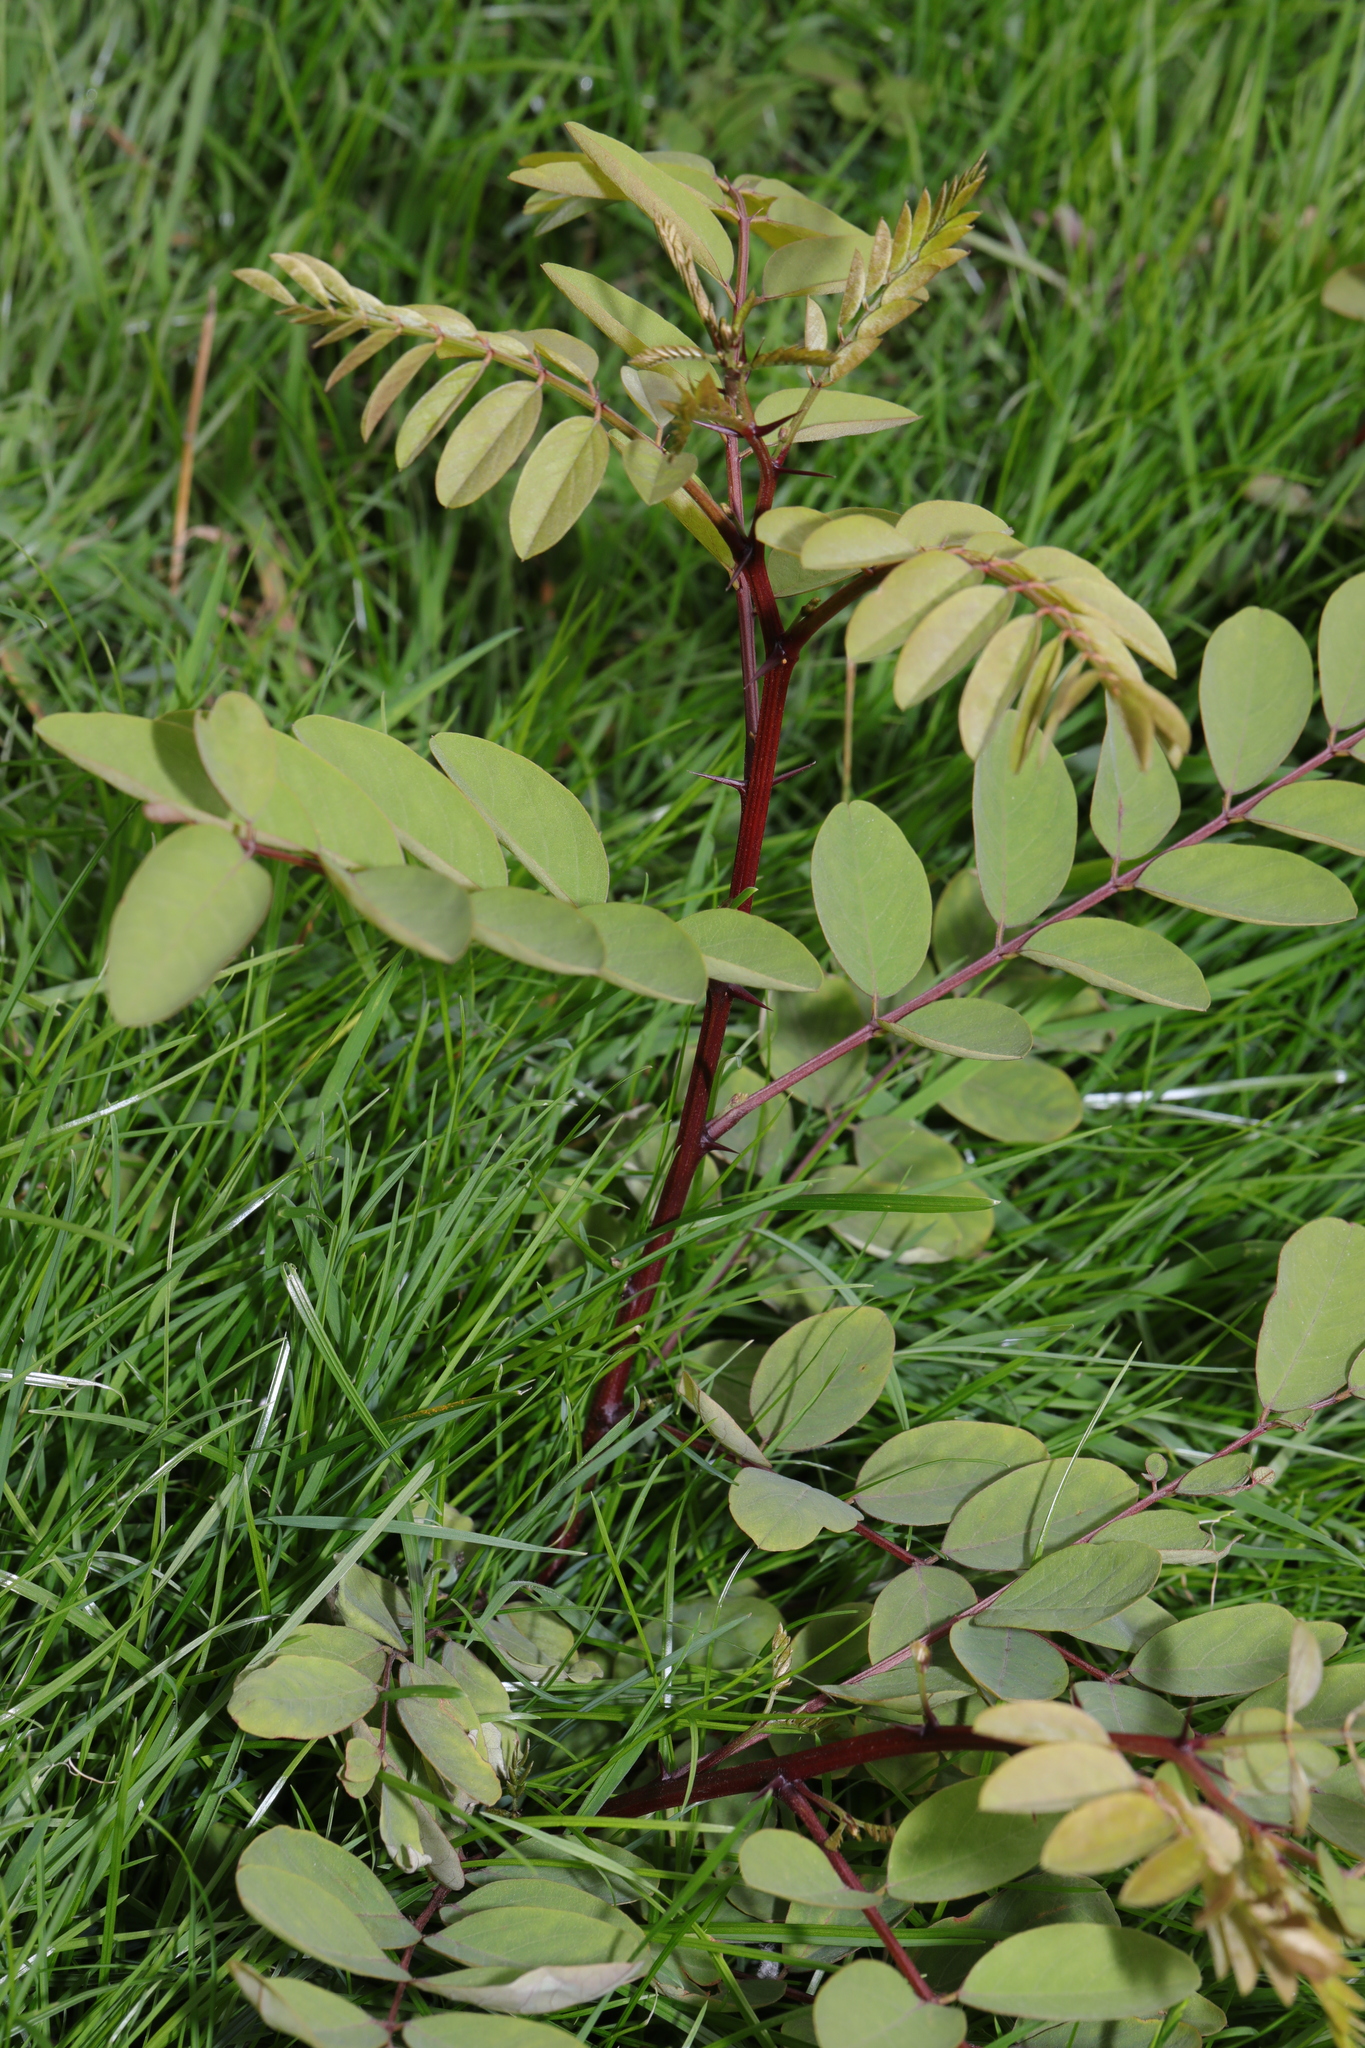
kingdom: Plantae
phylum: Tracheophyta
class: Magnoliopsida
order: Fabales
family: Fabaceae
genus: Robinia
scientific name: Robinia pseudoacacia
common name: Black locust
